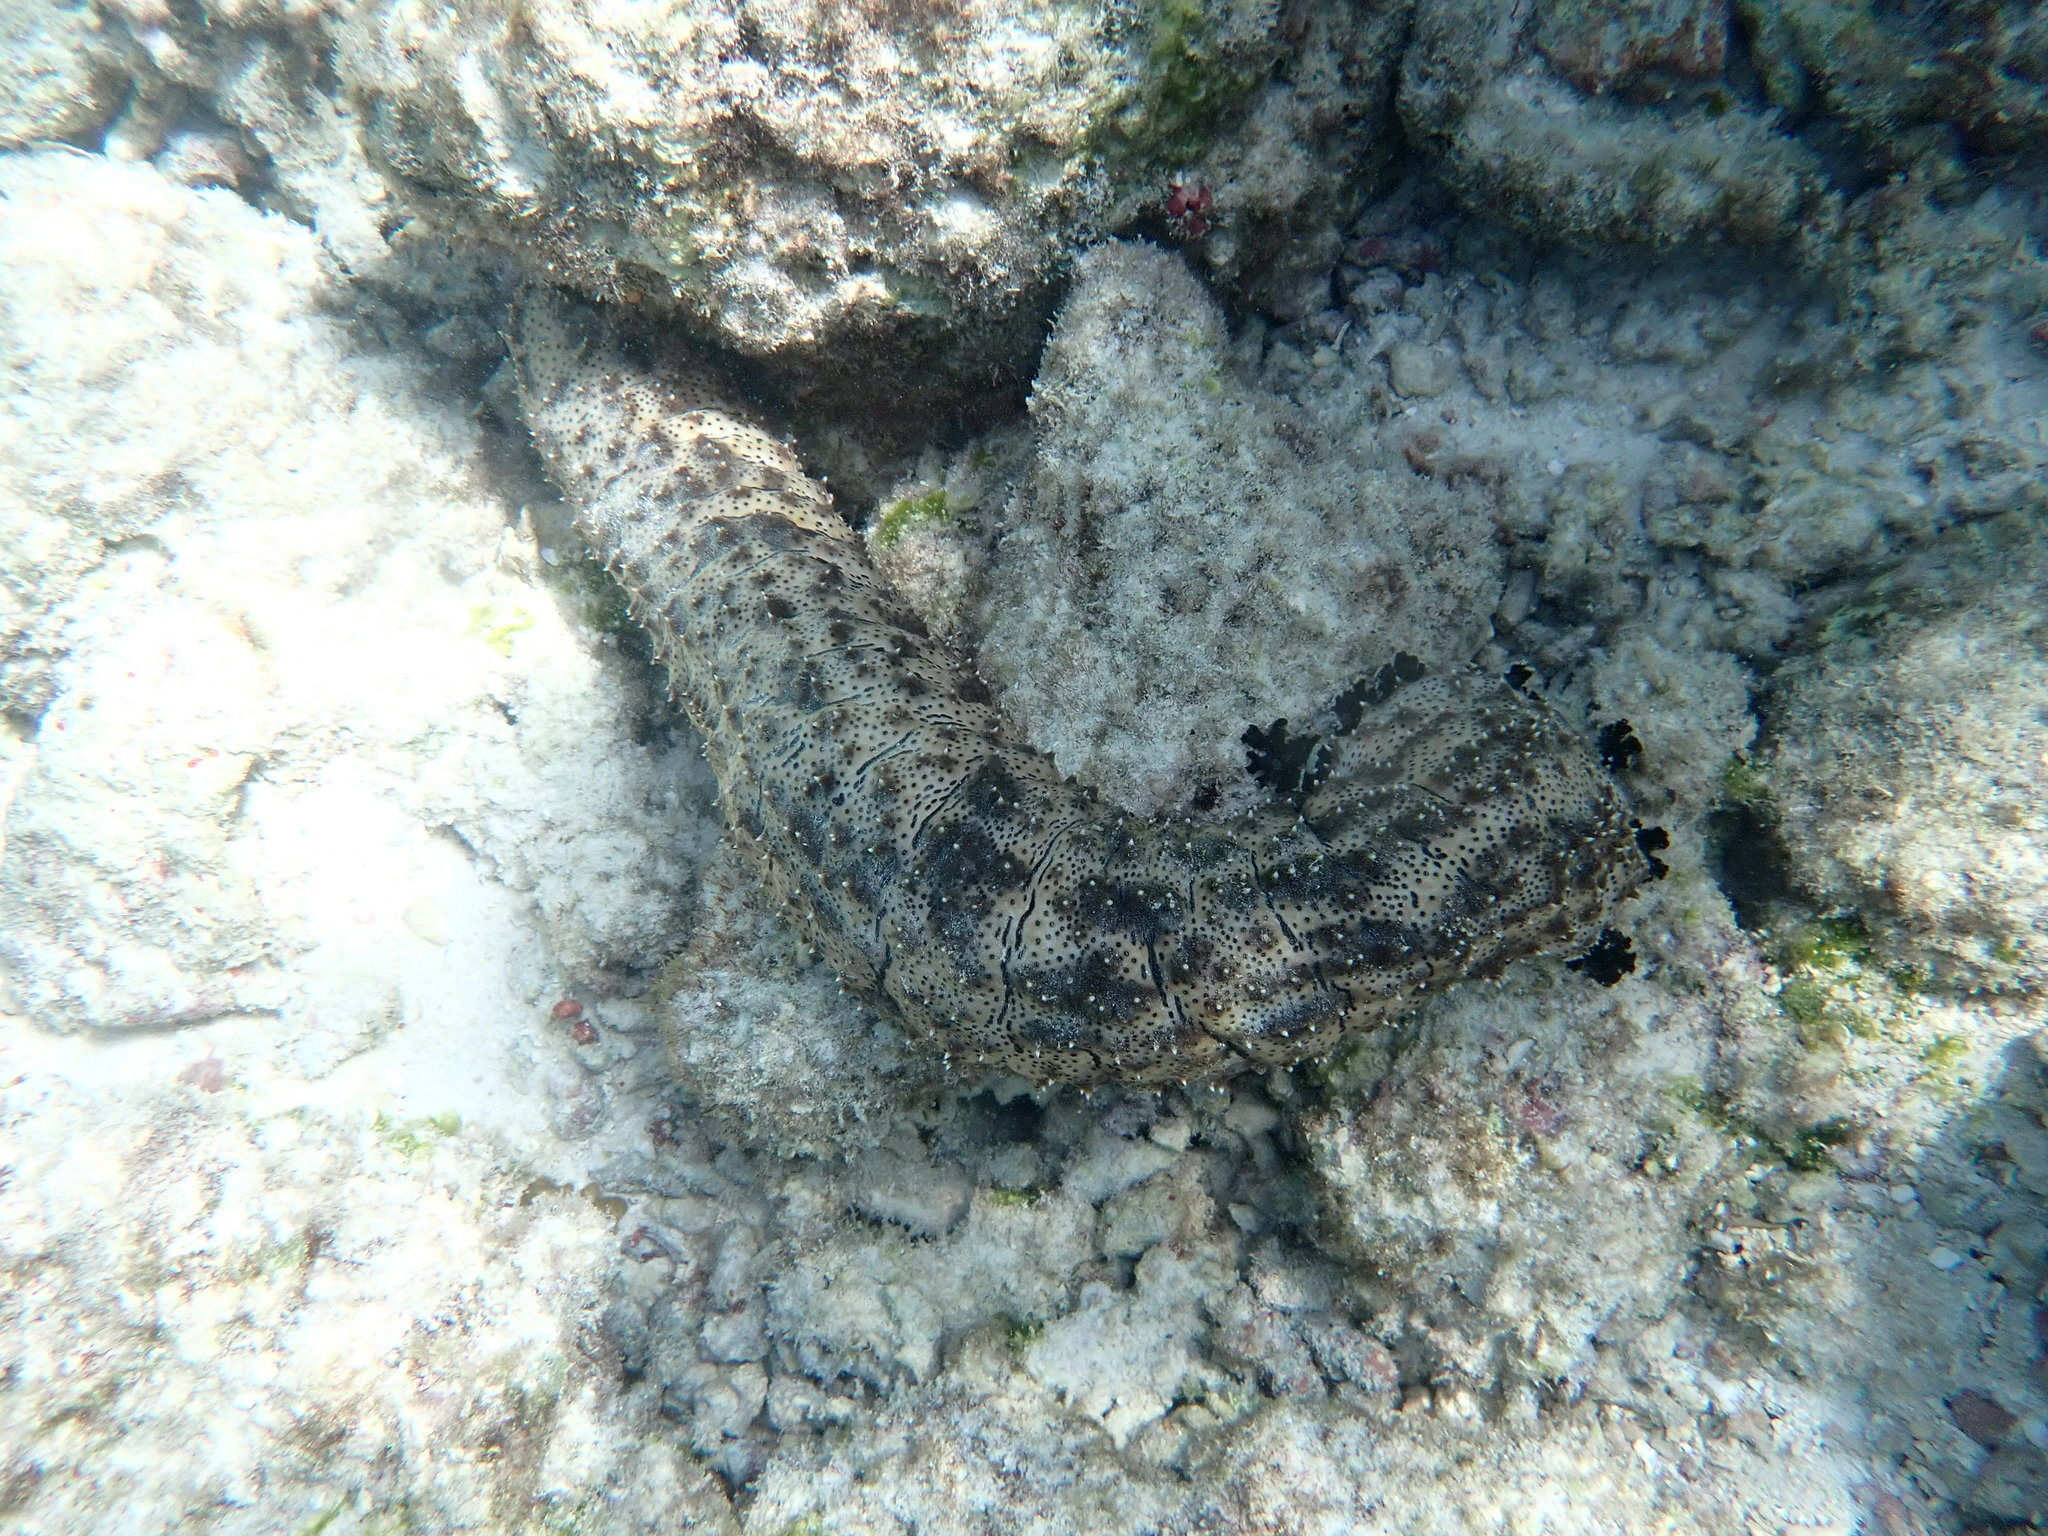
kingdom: Animalia
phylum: Echinodermata
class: Holothuroidea
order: Holothuriida
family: Holothuriidae
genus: Pearsonothuria
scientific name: Pearsonothuria graeffei
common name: Blackspotted sea cucumber
